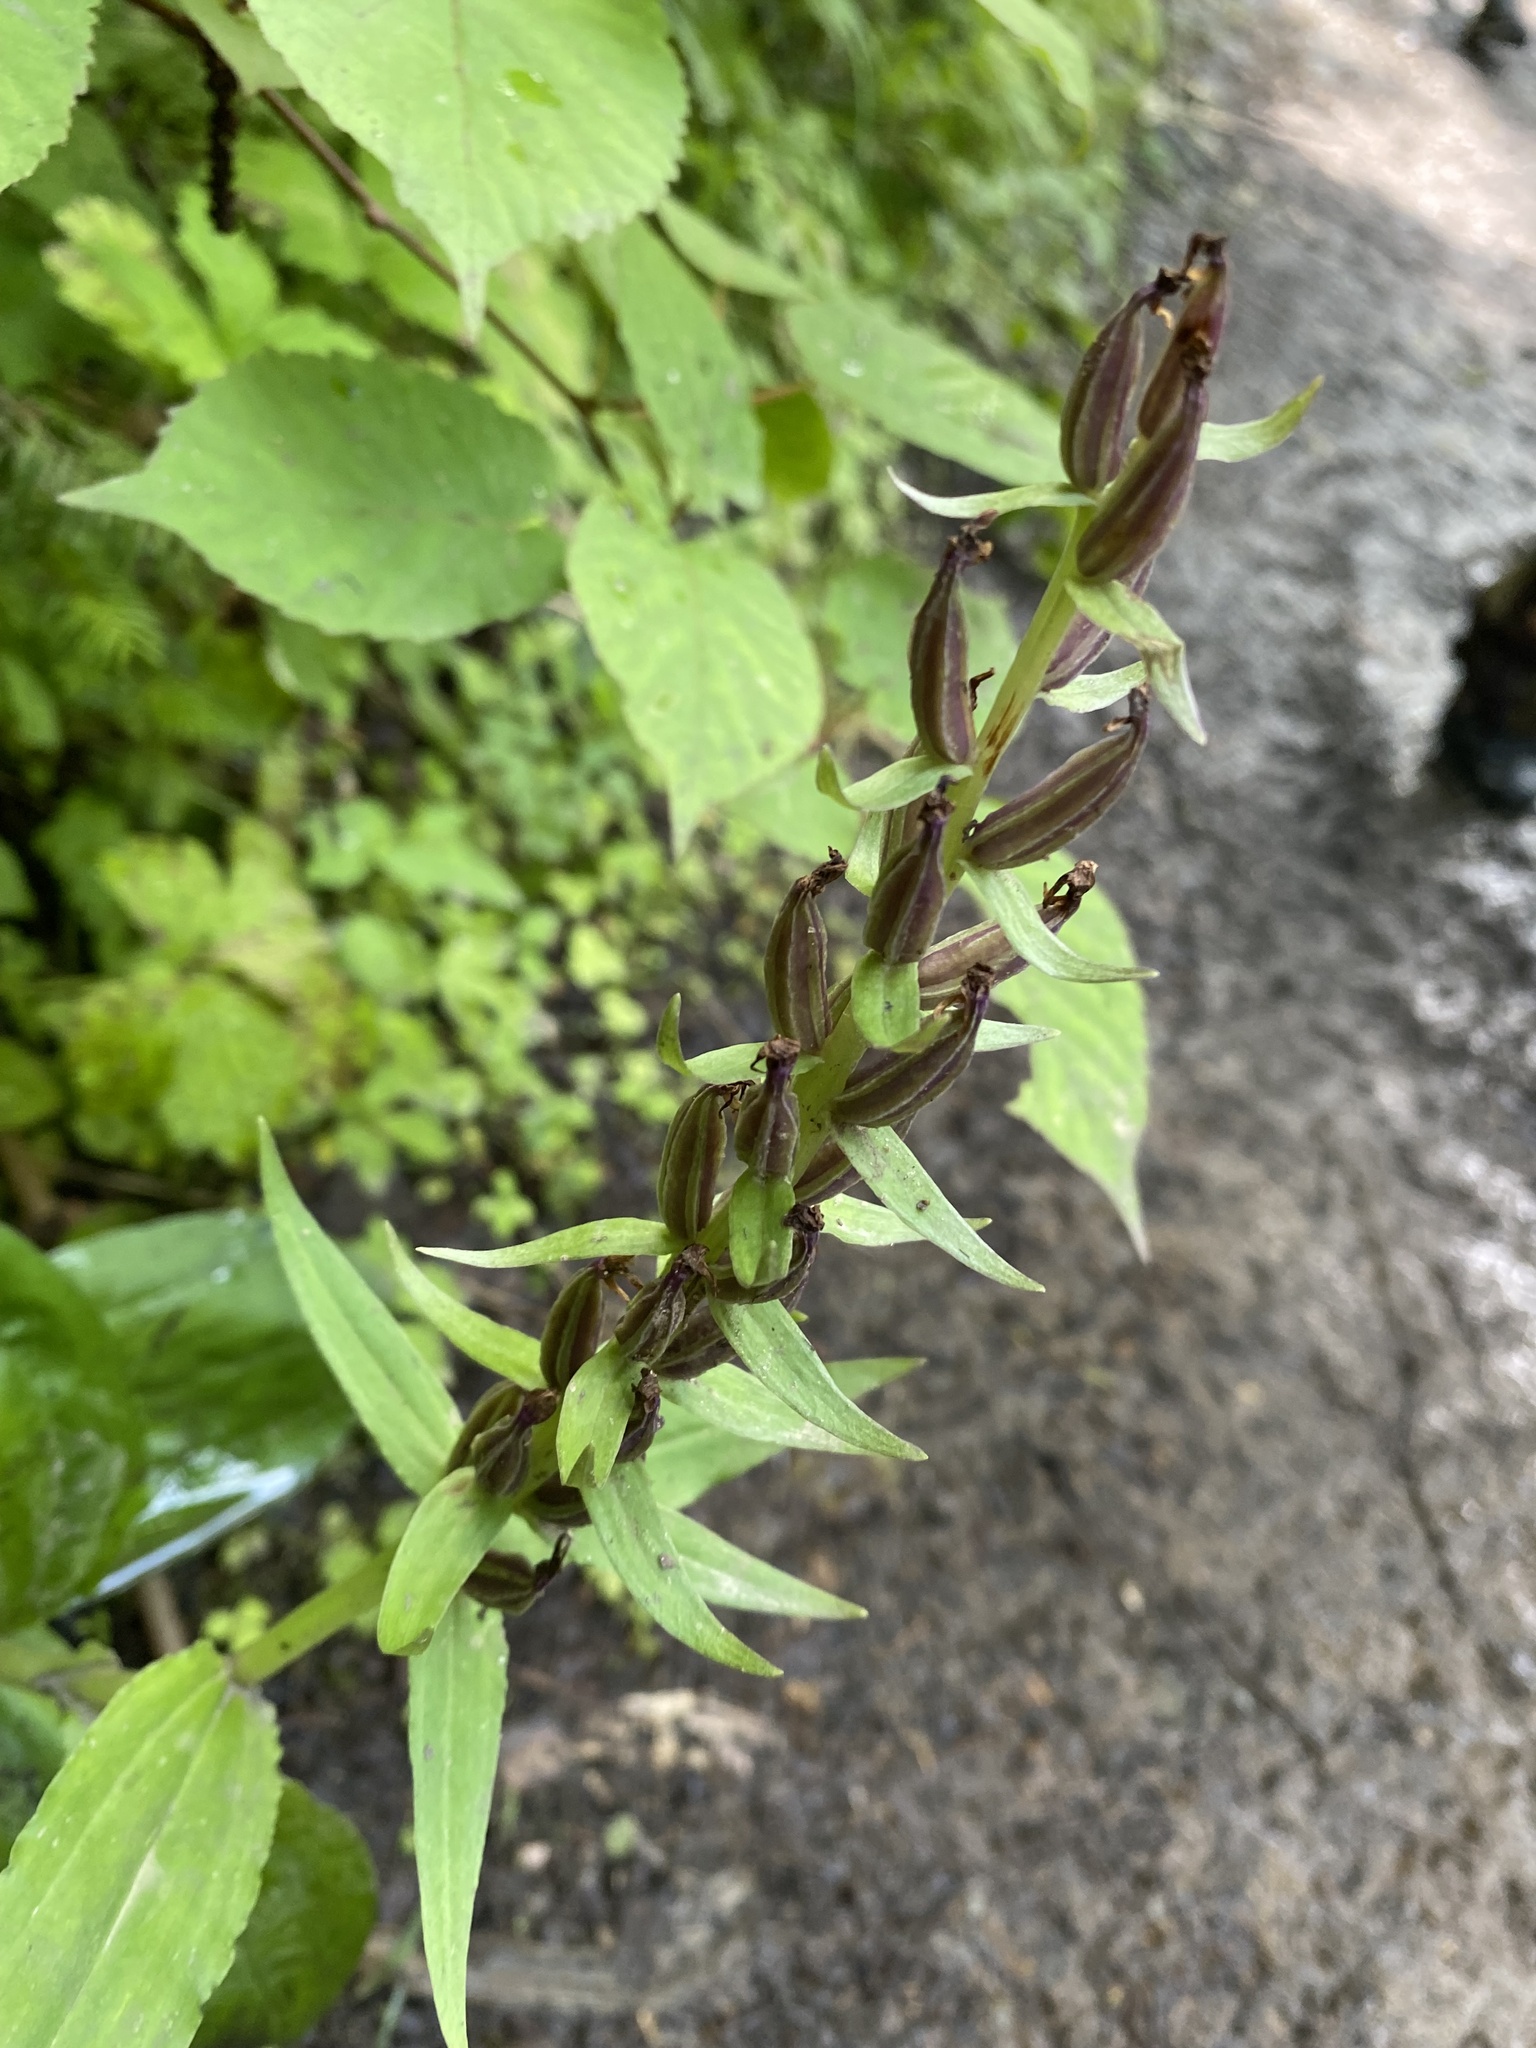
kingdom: Plantae
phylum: Tracheophyta
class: Liliopsida
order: Asparagales
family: Orchidaceae
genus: Galearis
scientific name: Galearis camtschatica
